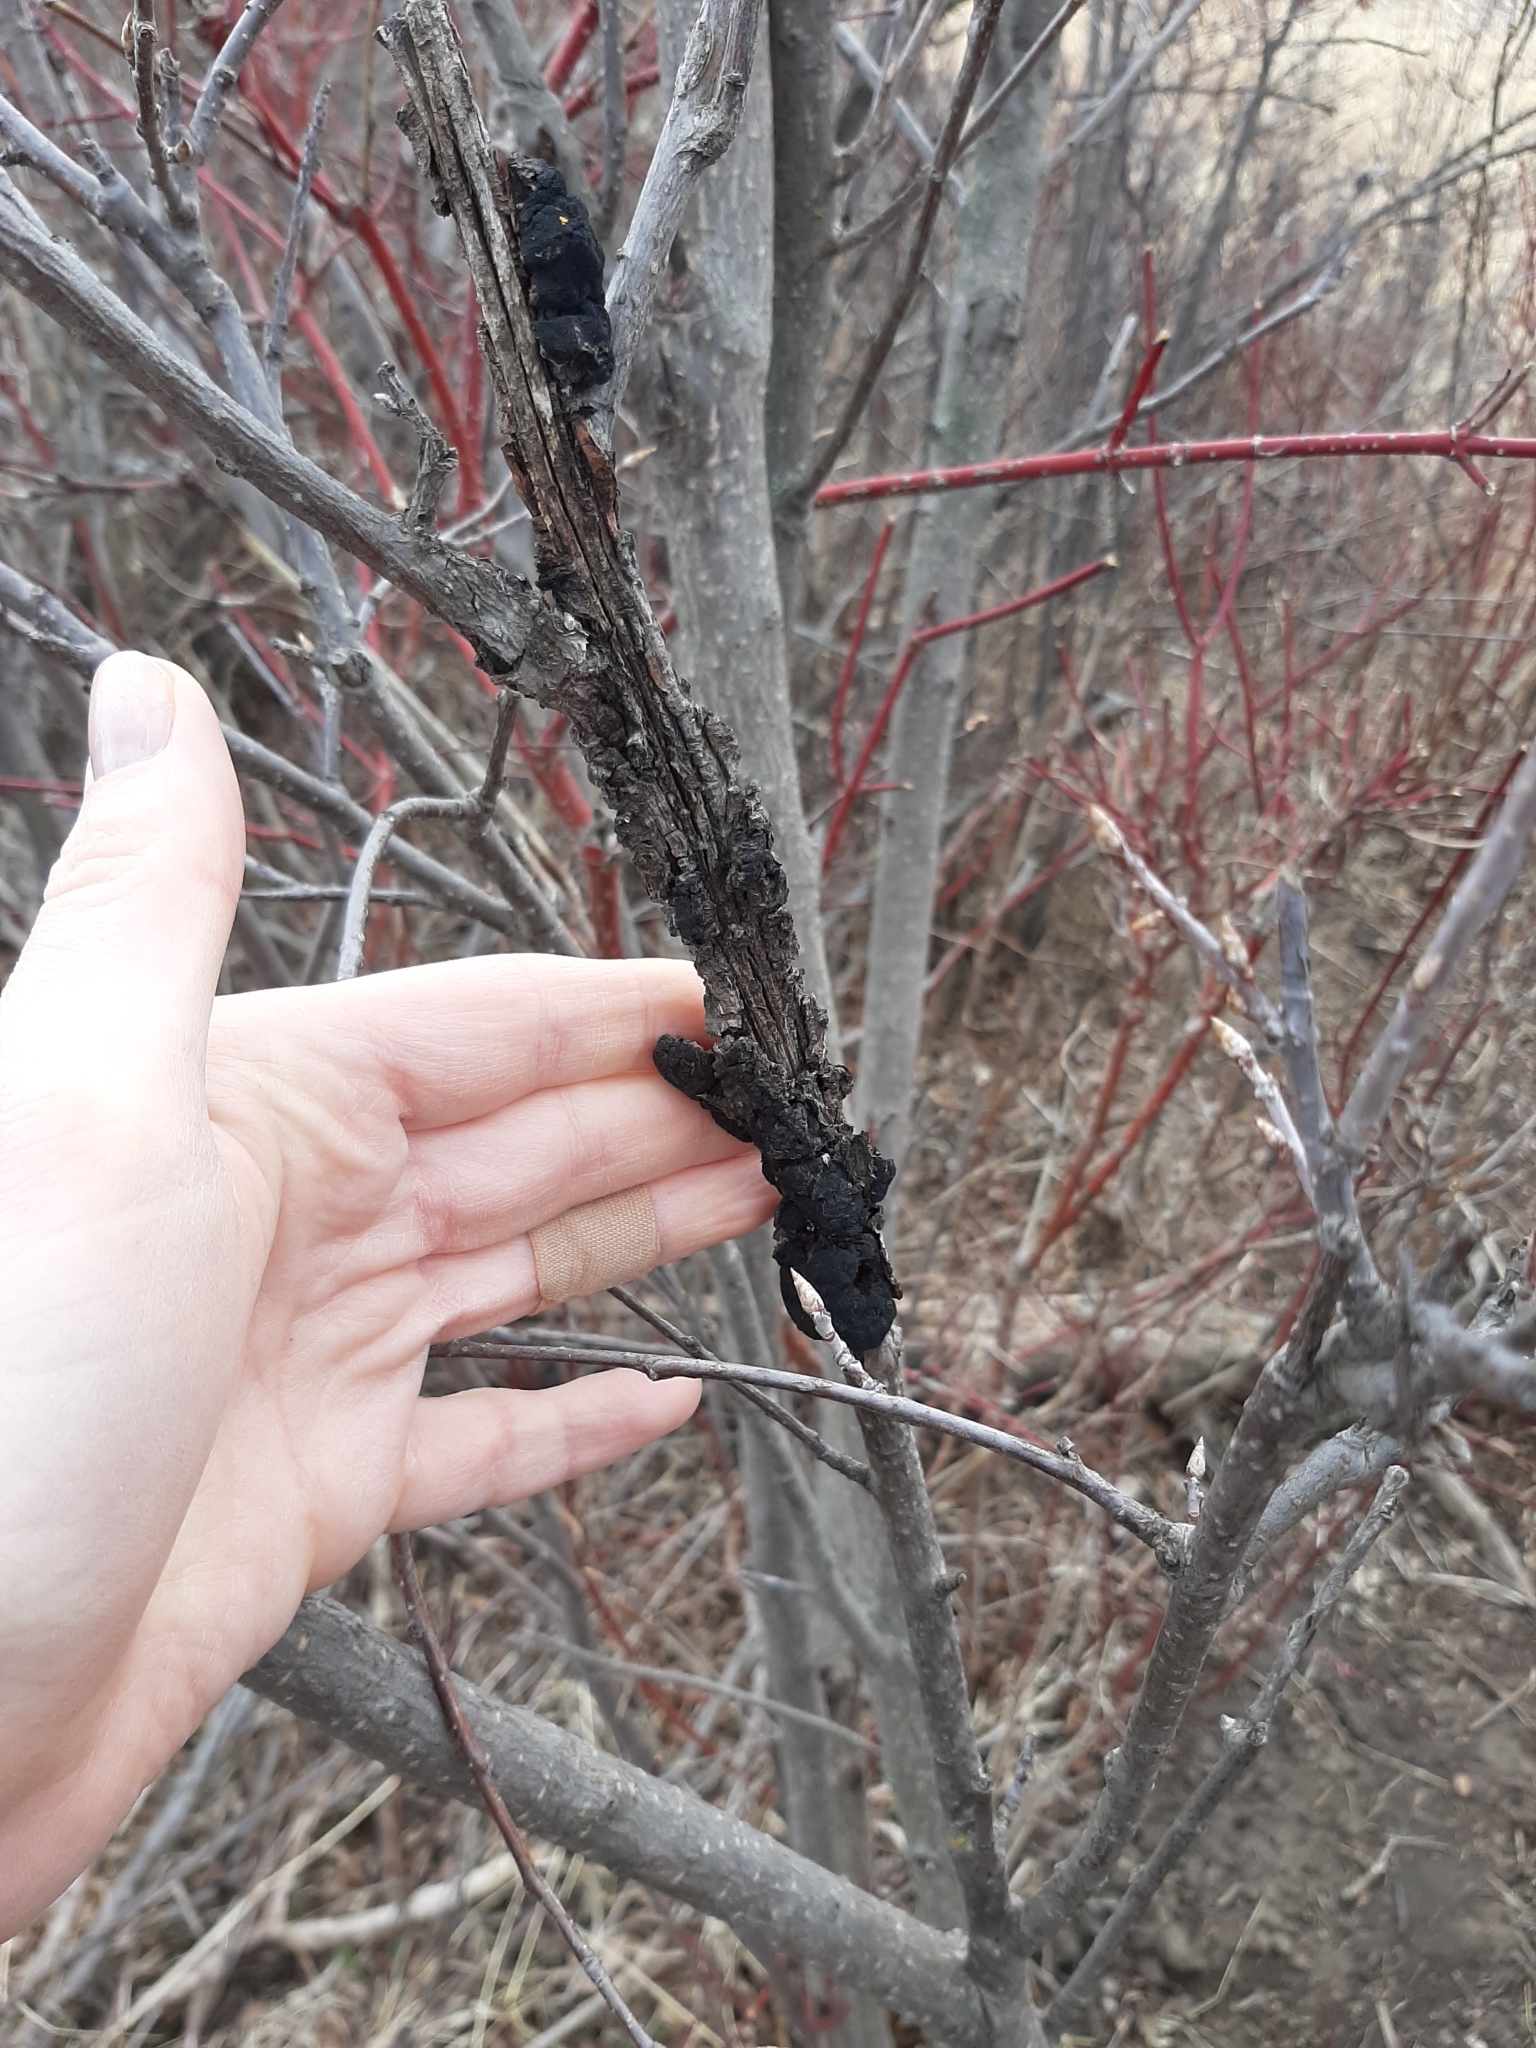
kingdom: Fungi
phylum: Ascomycota
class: Dothideomycetes
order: Venturiales
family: Venturiaceae
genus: Apiosporina
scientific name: Apiosporina morbosa
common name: Black knot
